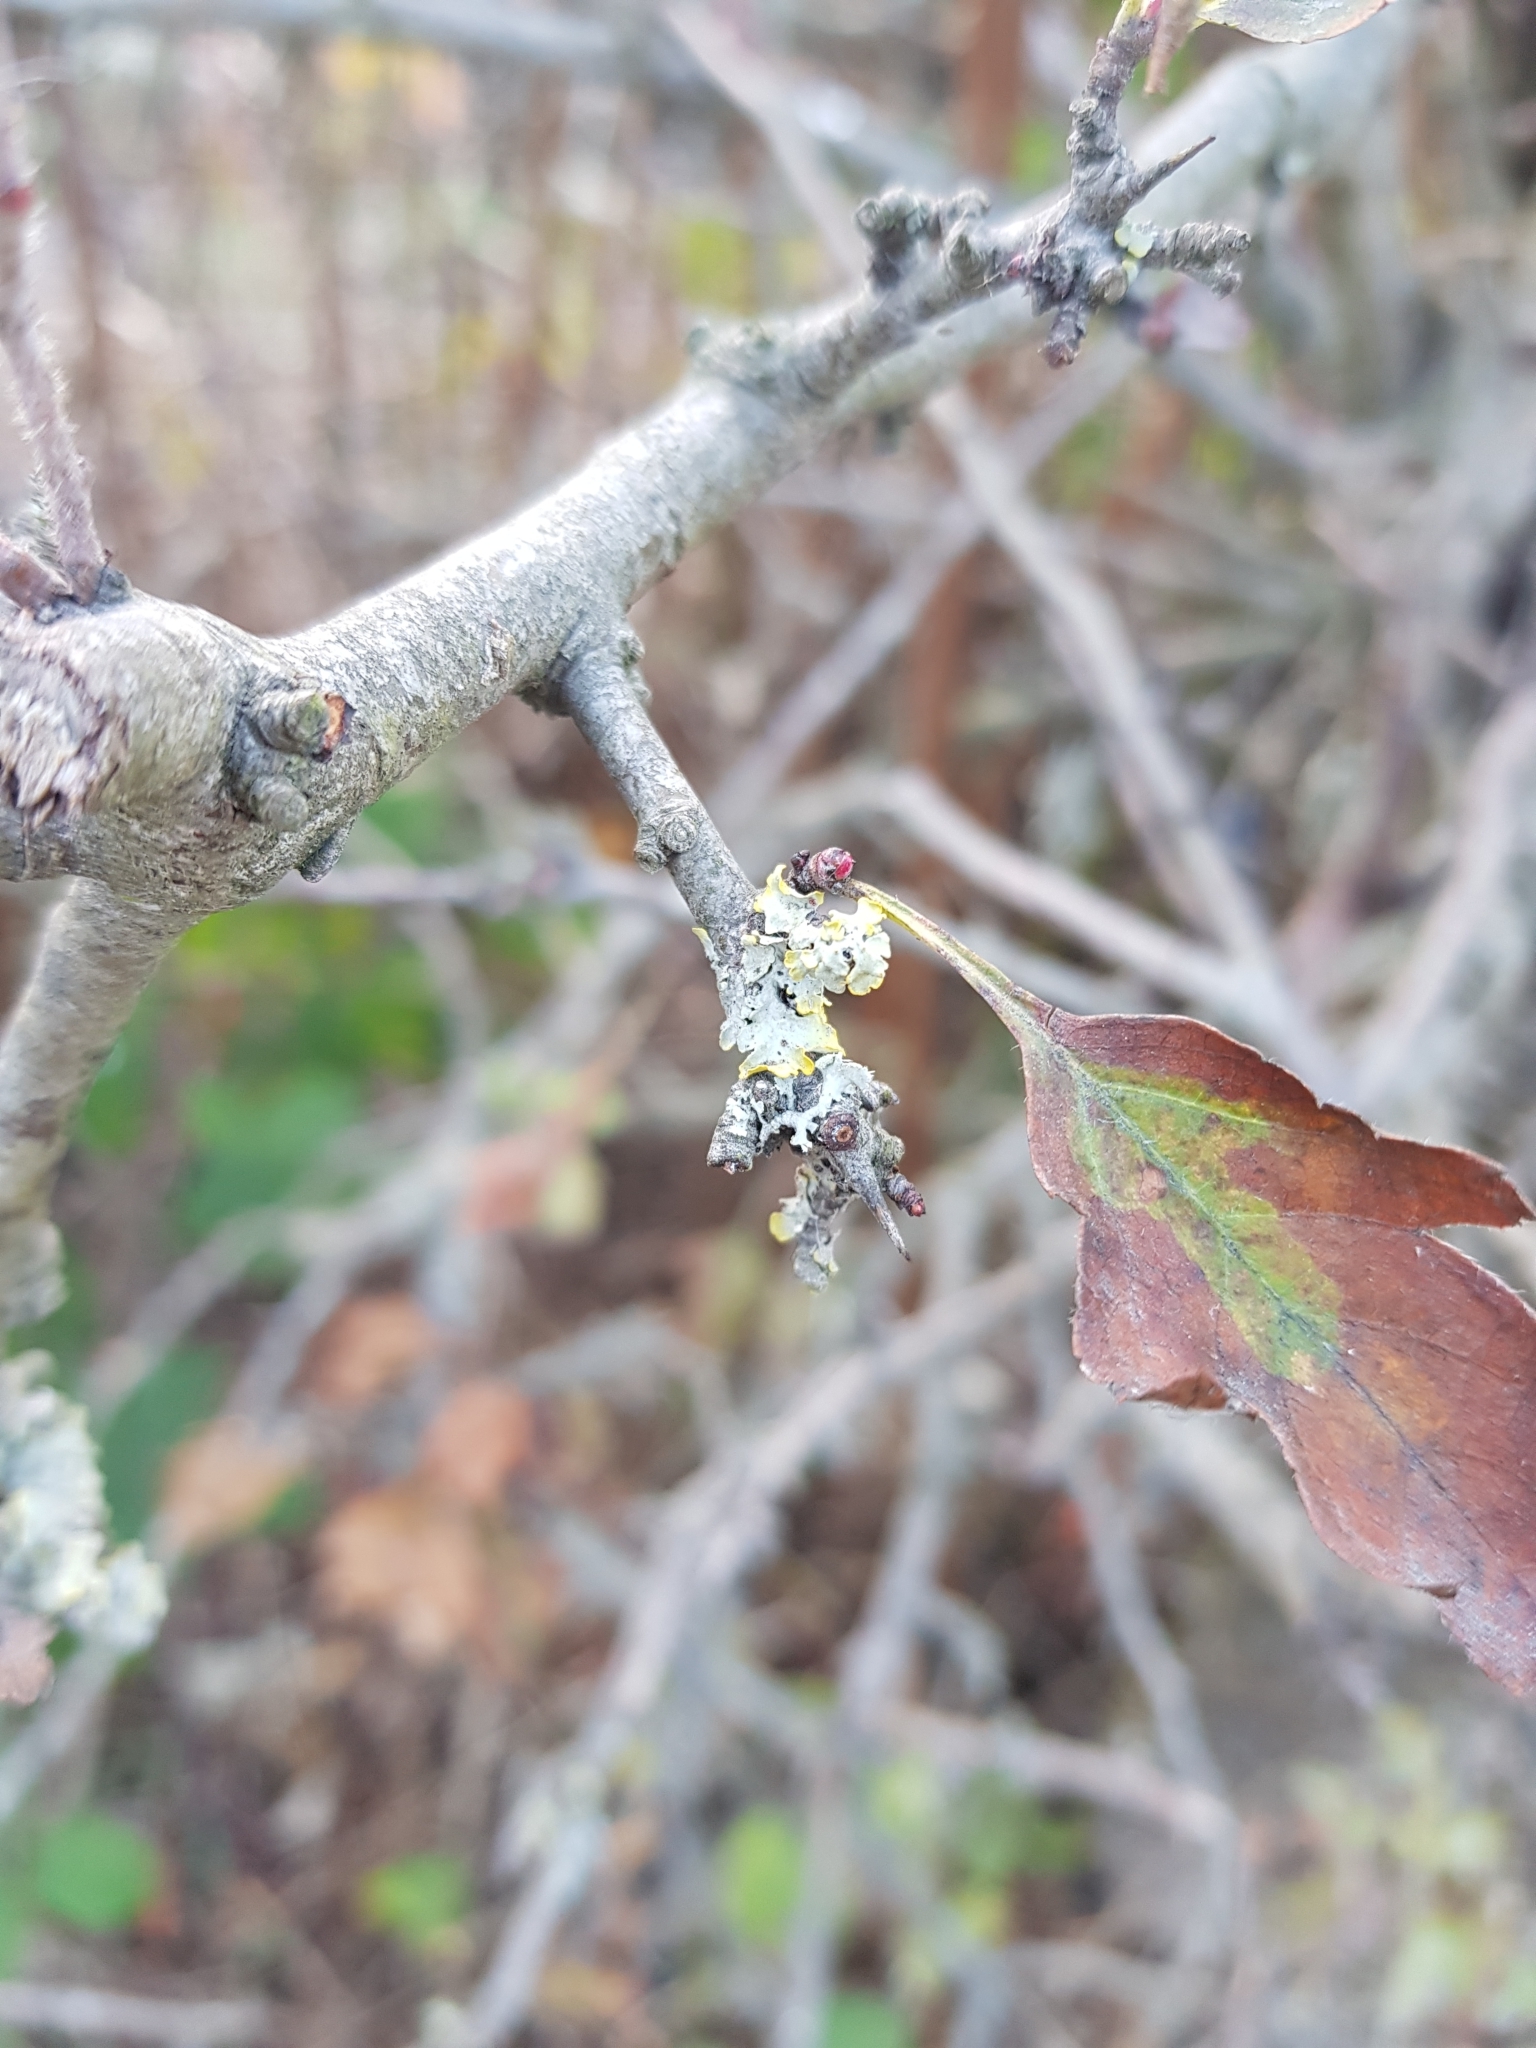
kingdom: Fungi
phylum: Ascomycota
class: Lecanoromycetes
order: Teloschistales
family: Teloschistaceae
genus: Xanthoria
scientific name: Xanthoria parietina
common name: Common orange lichen
